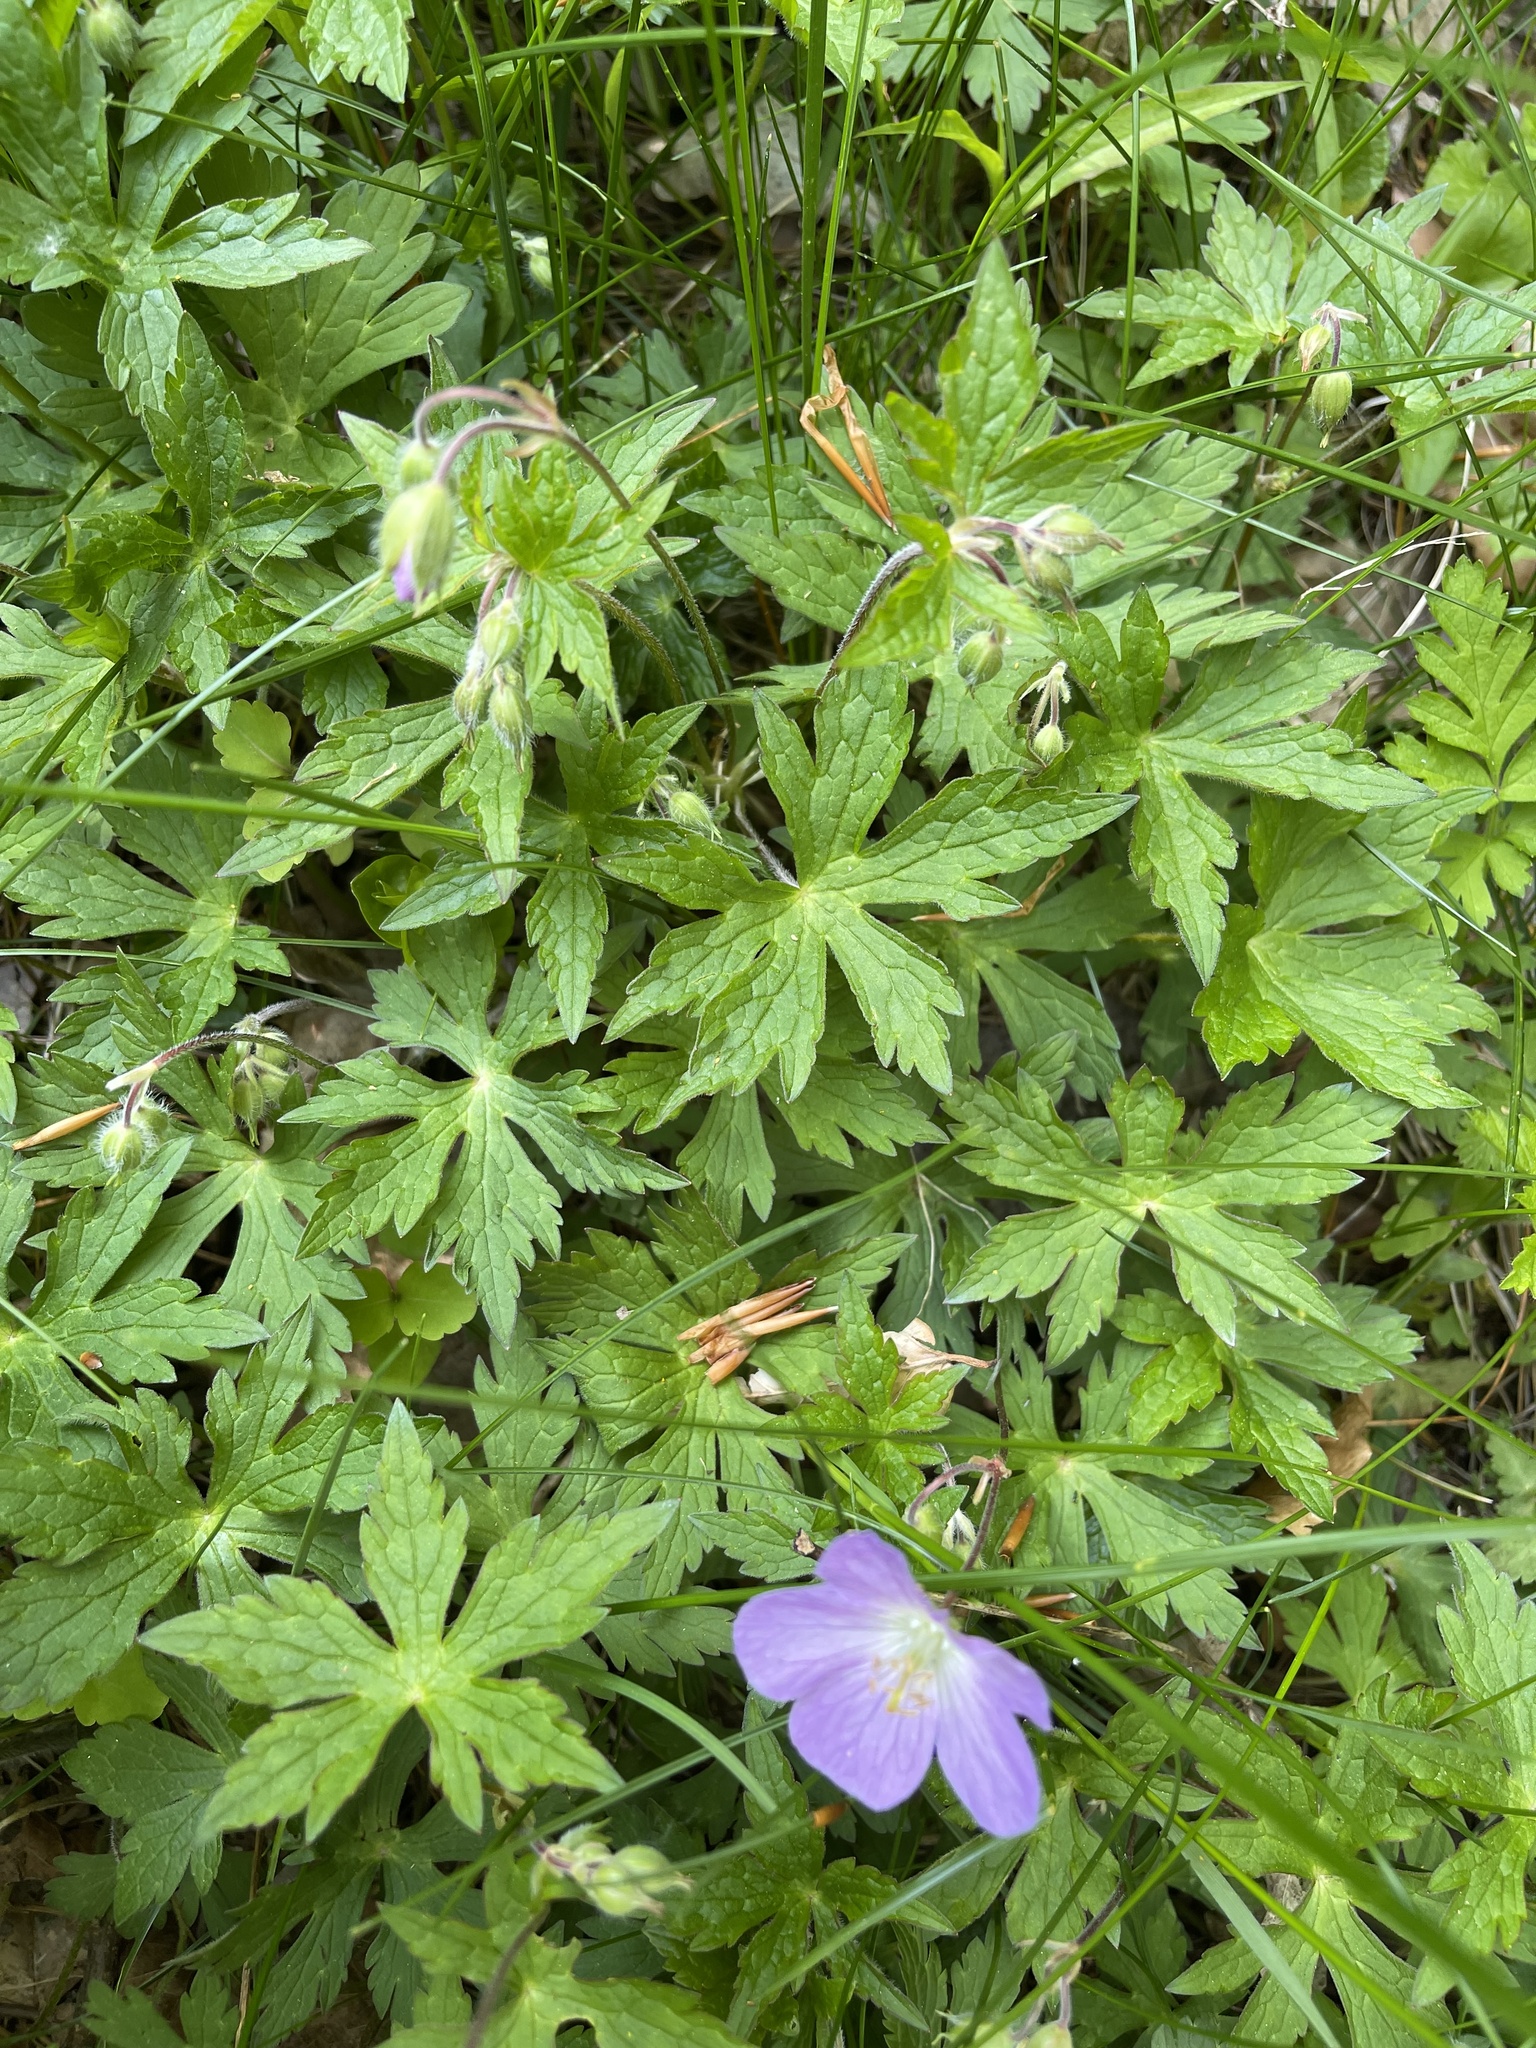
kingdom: Plantae
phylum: Tracheophyta
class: Magnoliopsida
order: Geraniales
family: Geraniaceae
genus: Geranium
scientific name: Geranium maculatum
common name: Spotted geranium
